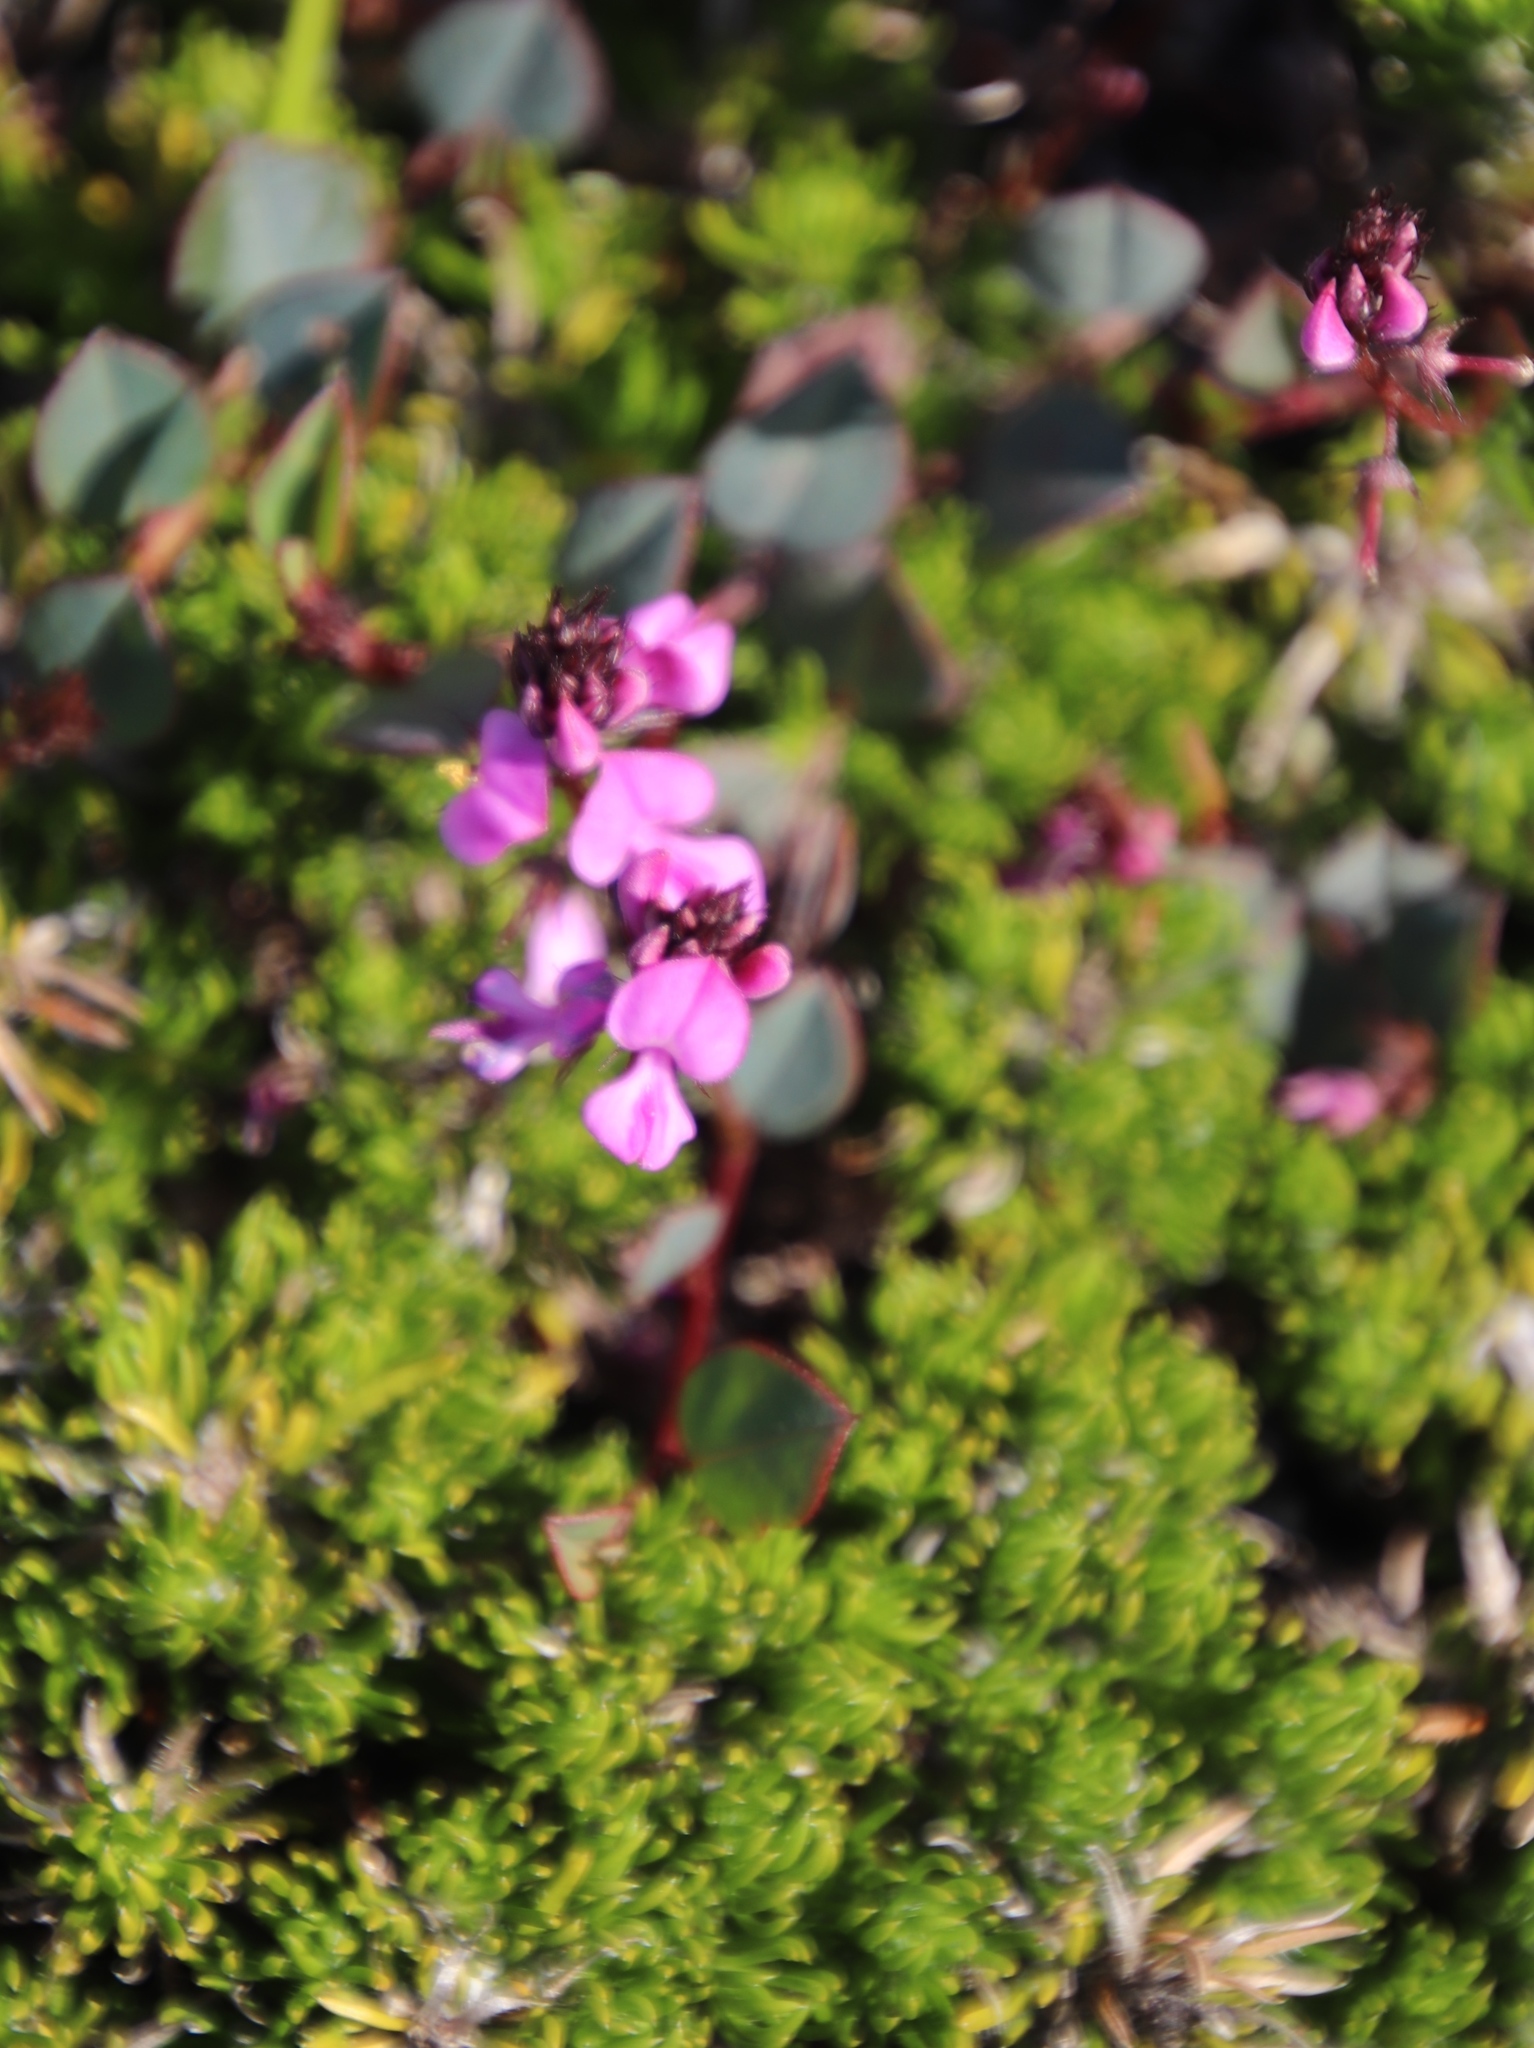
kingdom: Plantae
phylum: Tracheophyta
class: Magnoliopsida
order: Fabales
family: Fabaceae
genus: Indigofera
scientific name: Indigofera ovata
